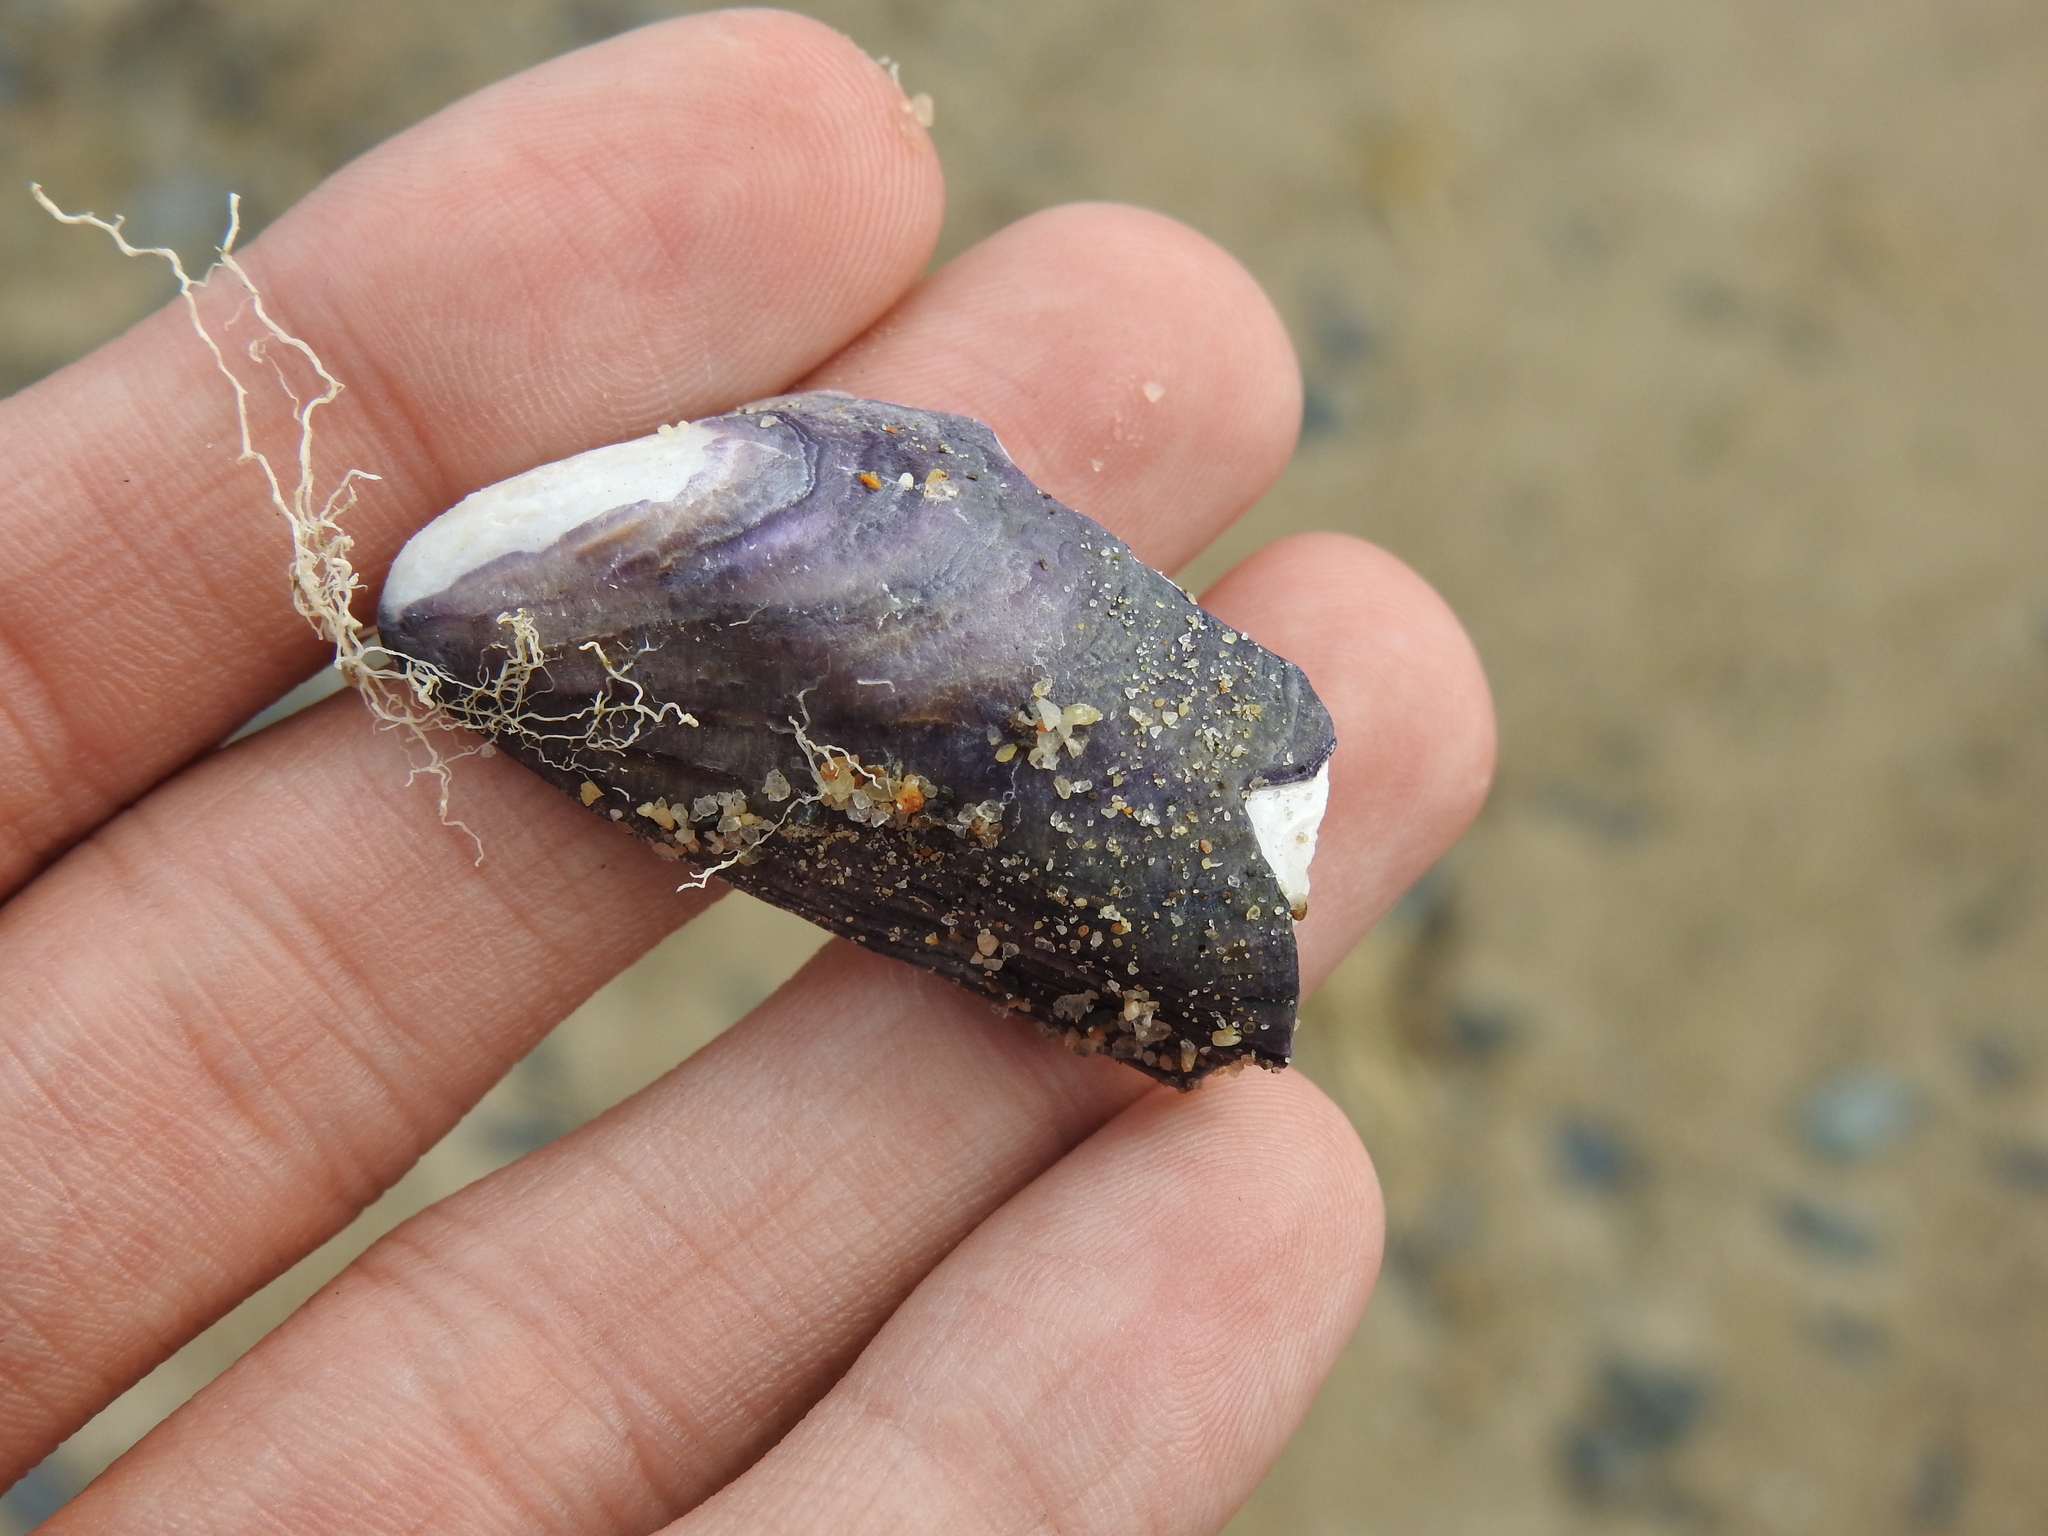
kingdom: Animalia
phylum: Mollusca
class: Bivalvia
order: Mytilida
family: Mytilidae
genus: Modiolus
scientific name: Modiolus modiolus
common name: Horse-mussel
